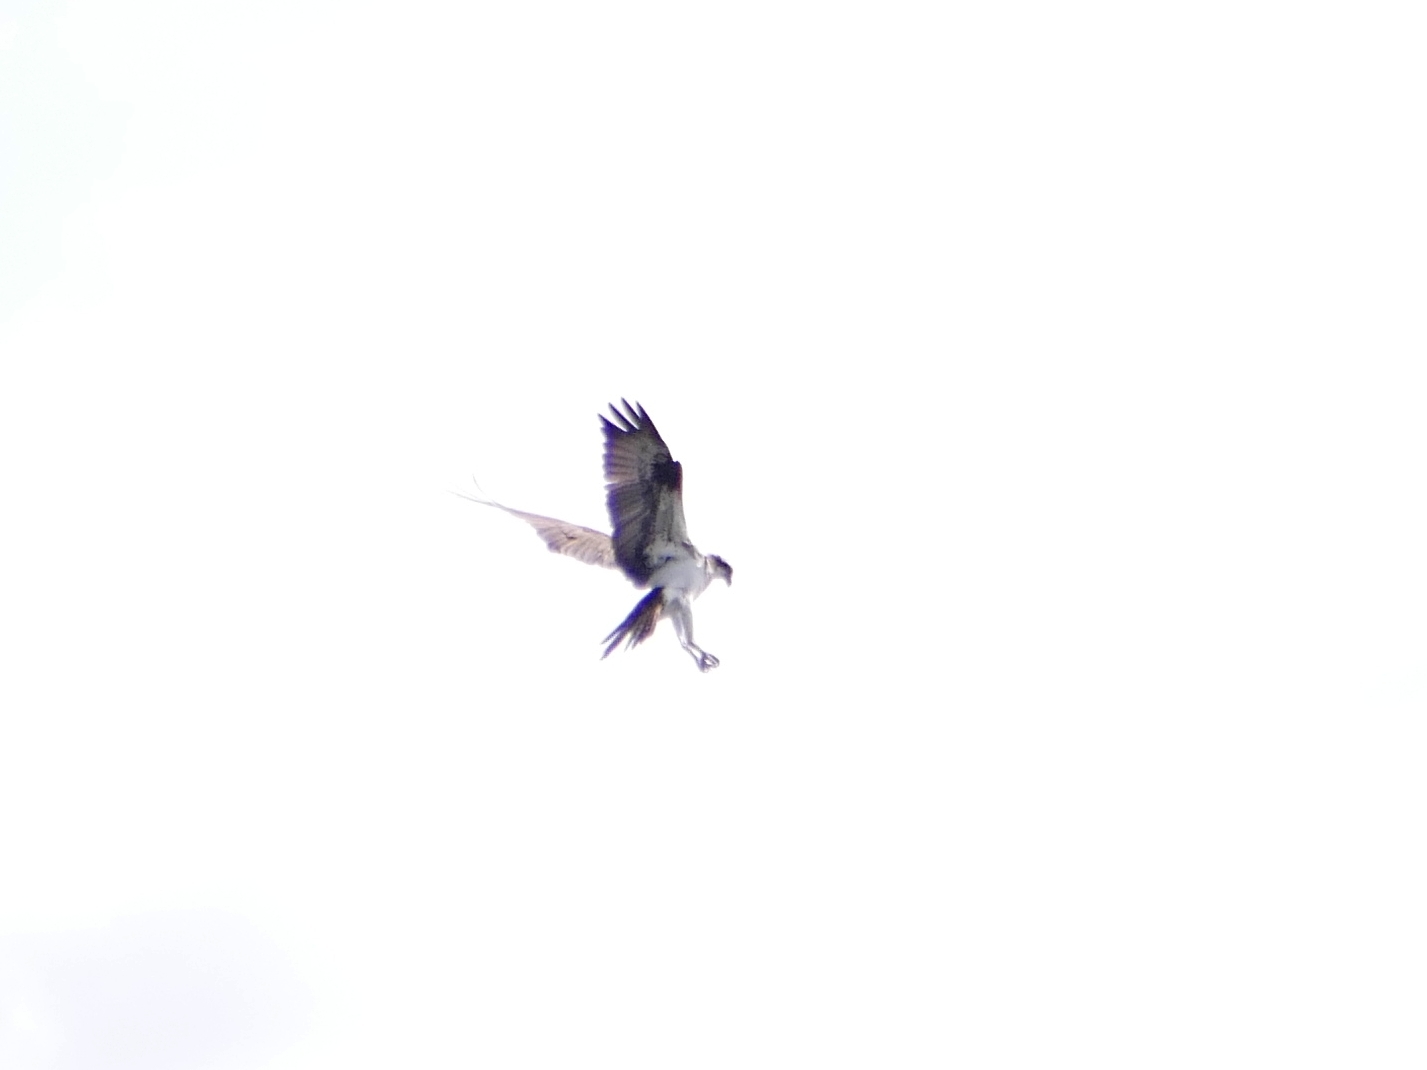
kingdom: Animalia
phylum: Chordata
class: Aves
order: Accipitriformes
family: Pandionidae
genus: Pandion
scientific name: Pandion haliaetus
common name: Osprey
